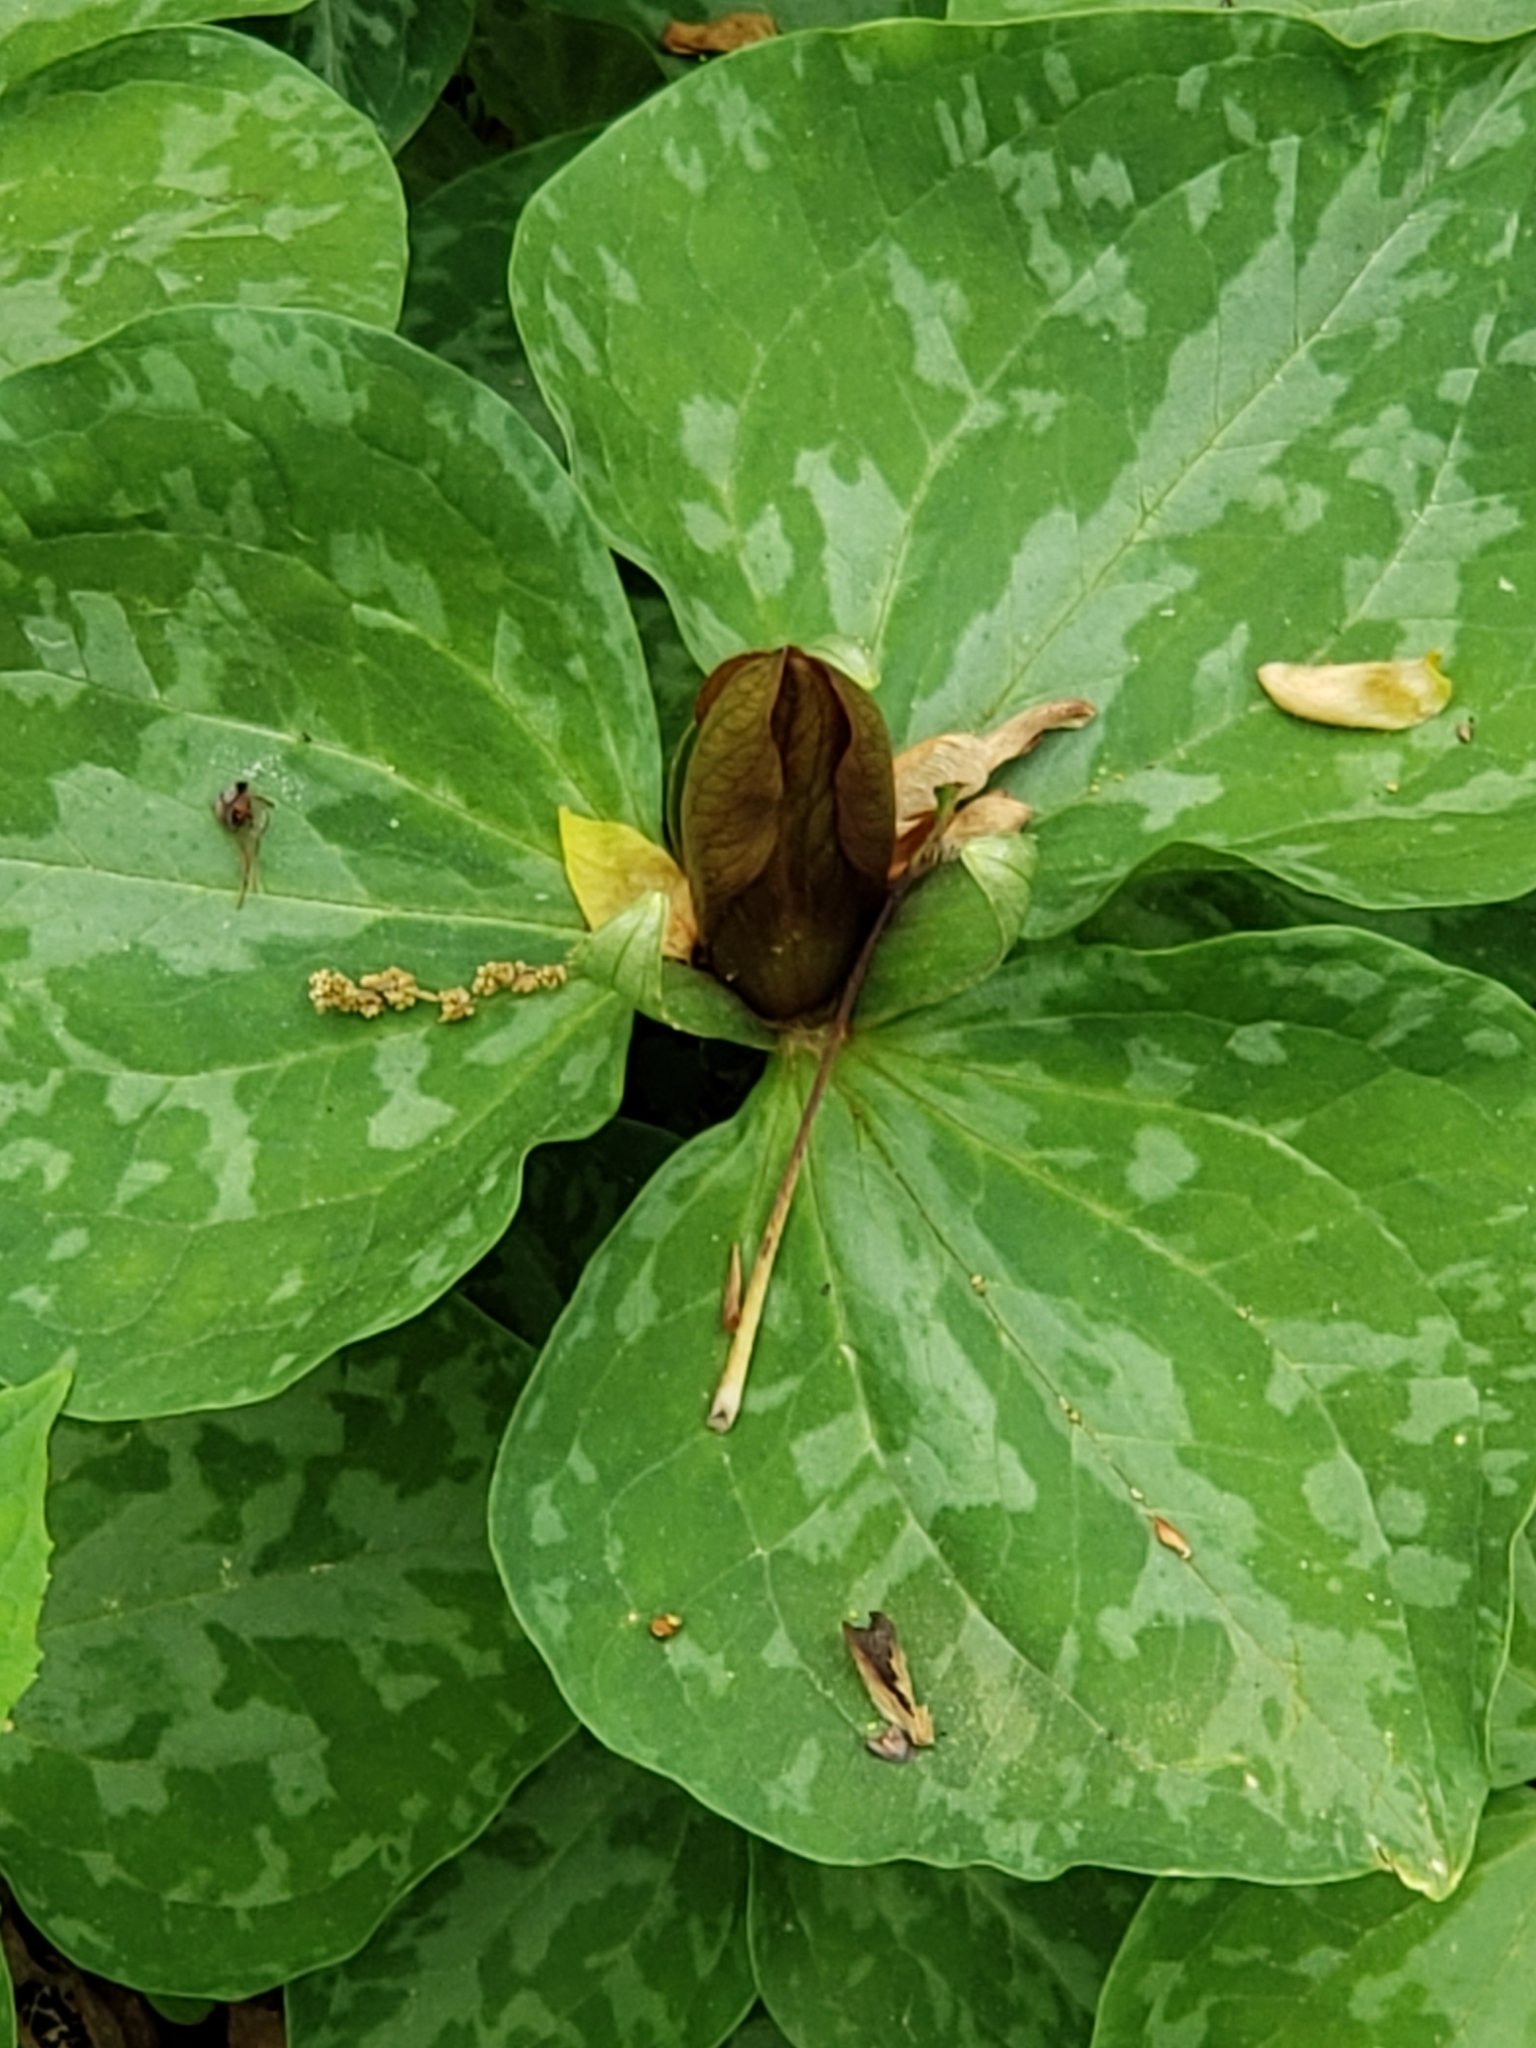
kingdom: Plantae
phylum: Tracheophyta
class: Liliopsida
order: Liliales
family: Melanthiaceae
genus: Trillium
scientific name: Trillium cuneatum
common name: Cuneate trillium
